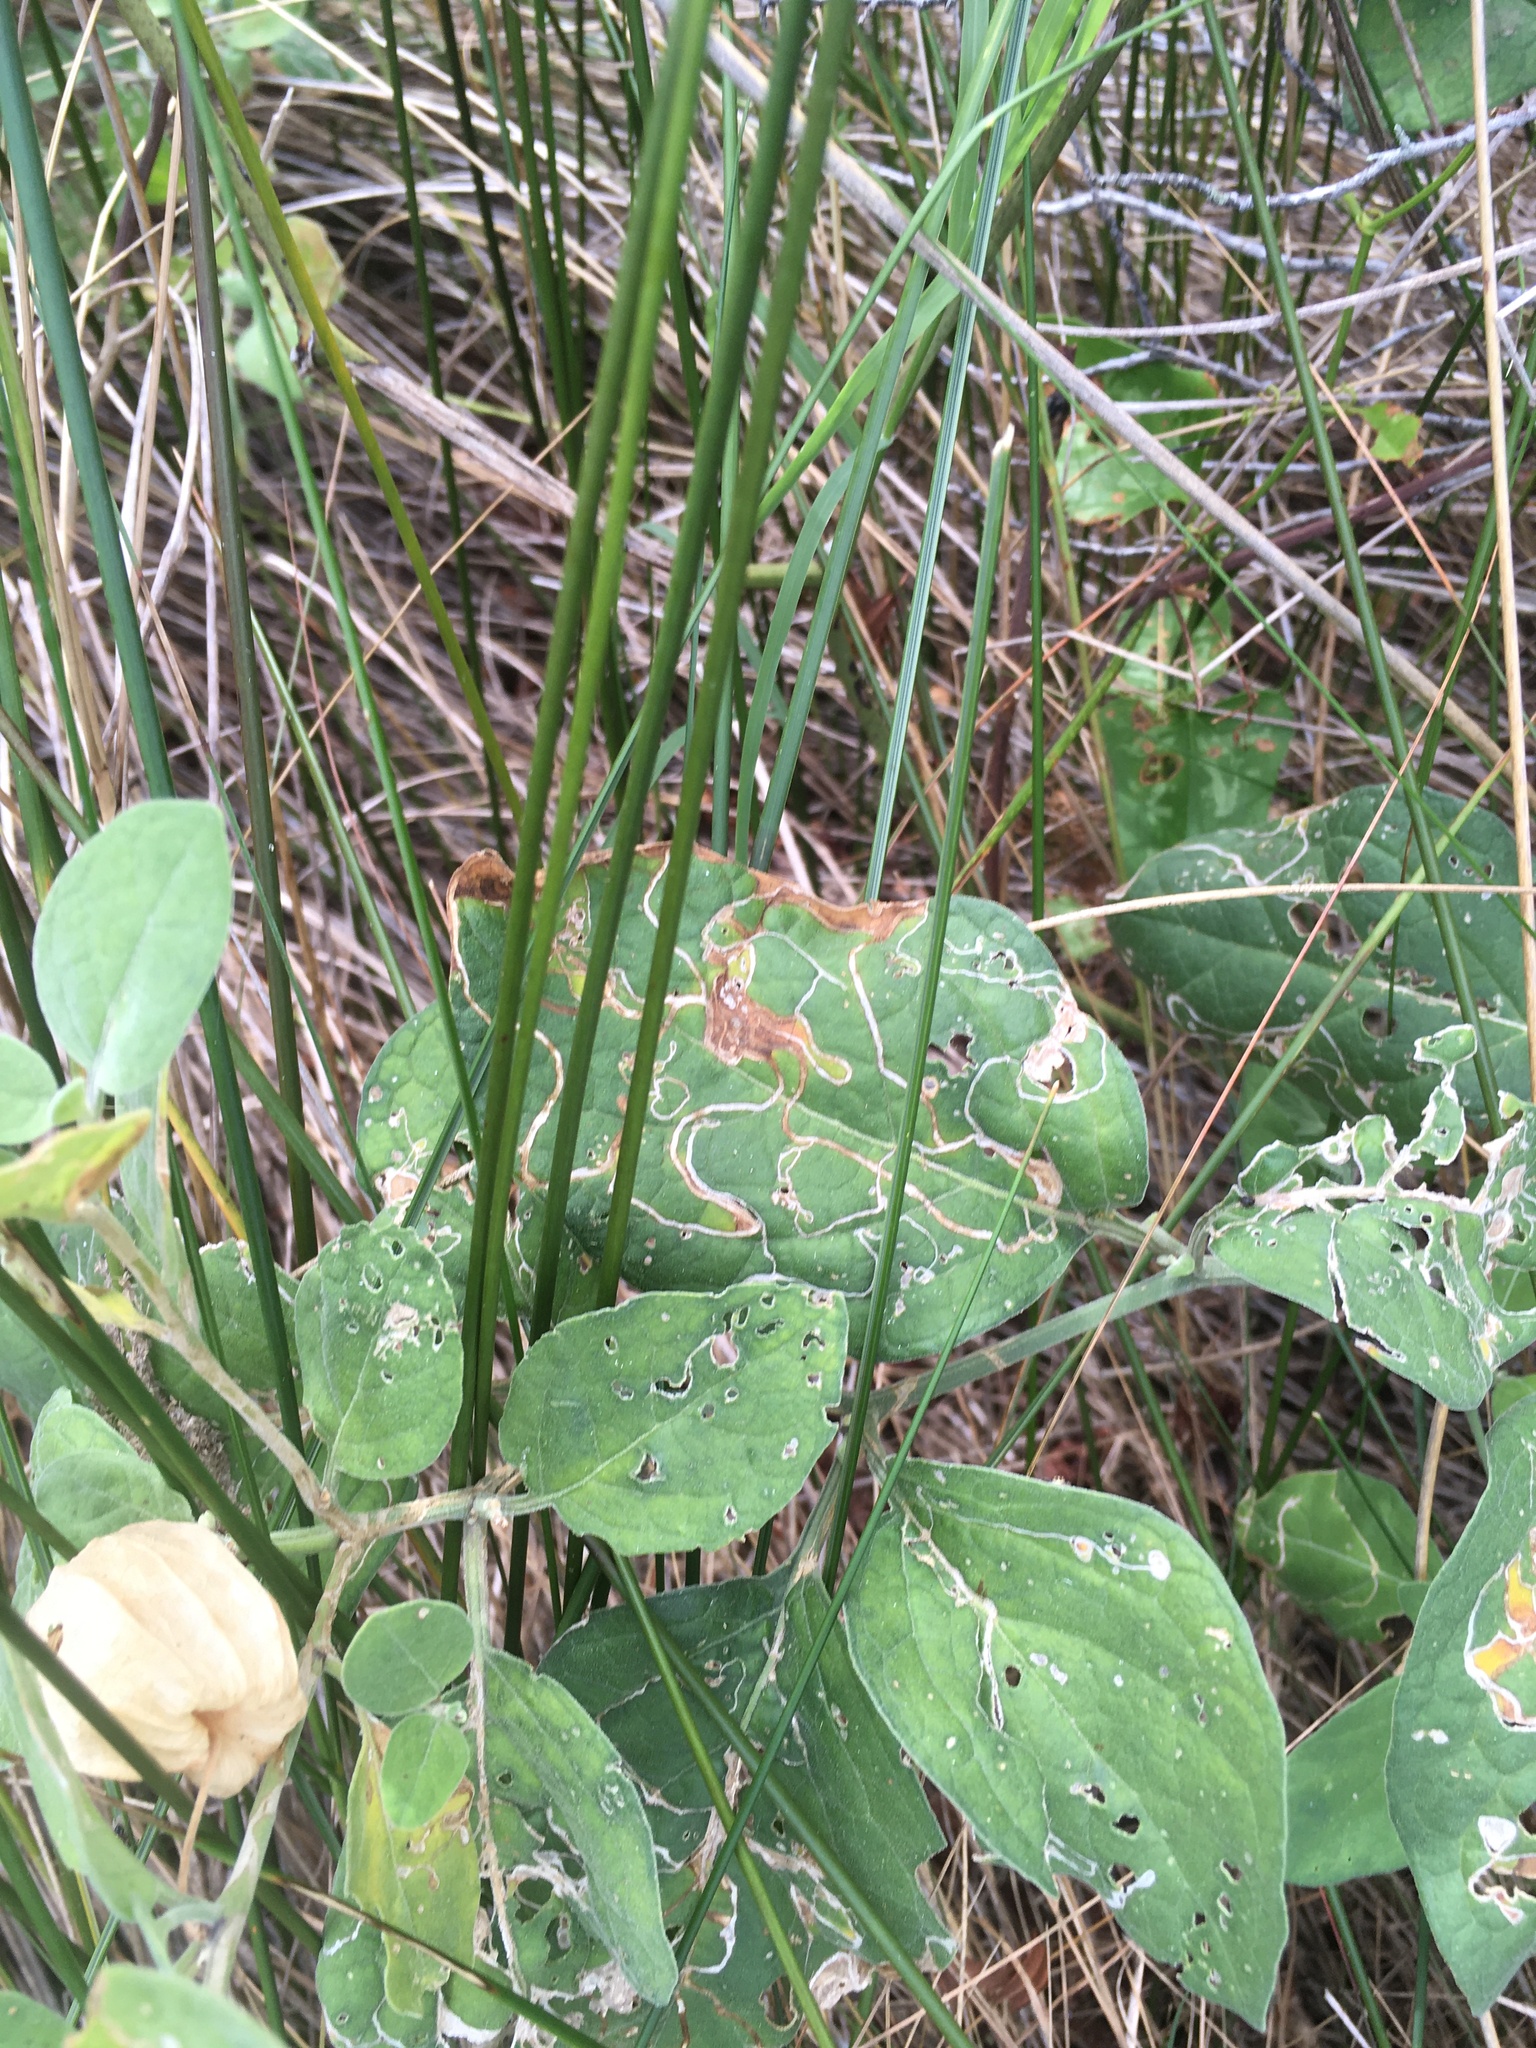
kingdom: Plantae
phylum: Tracheophyta
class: Magnoliopsida
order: Solanales
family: Solanaceae
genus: Physalis
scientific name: Physalis walteri
